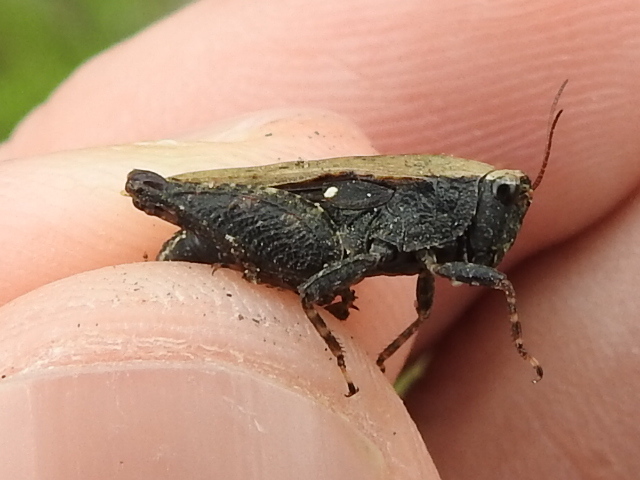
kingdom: Animalia
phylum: Arthropoda
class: Insecta
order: Orthoptera
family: Tetrigidae
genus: Tettigidea
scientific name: Tettigidea laterale
